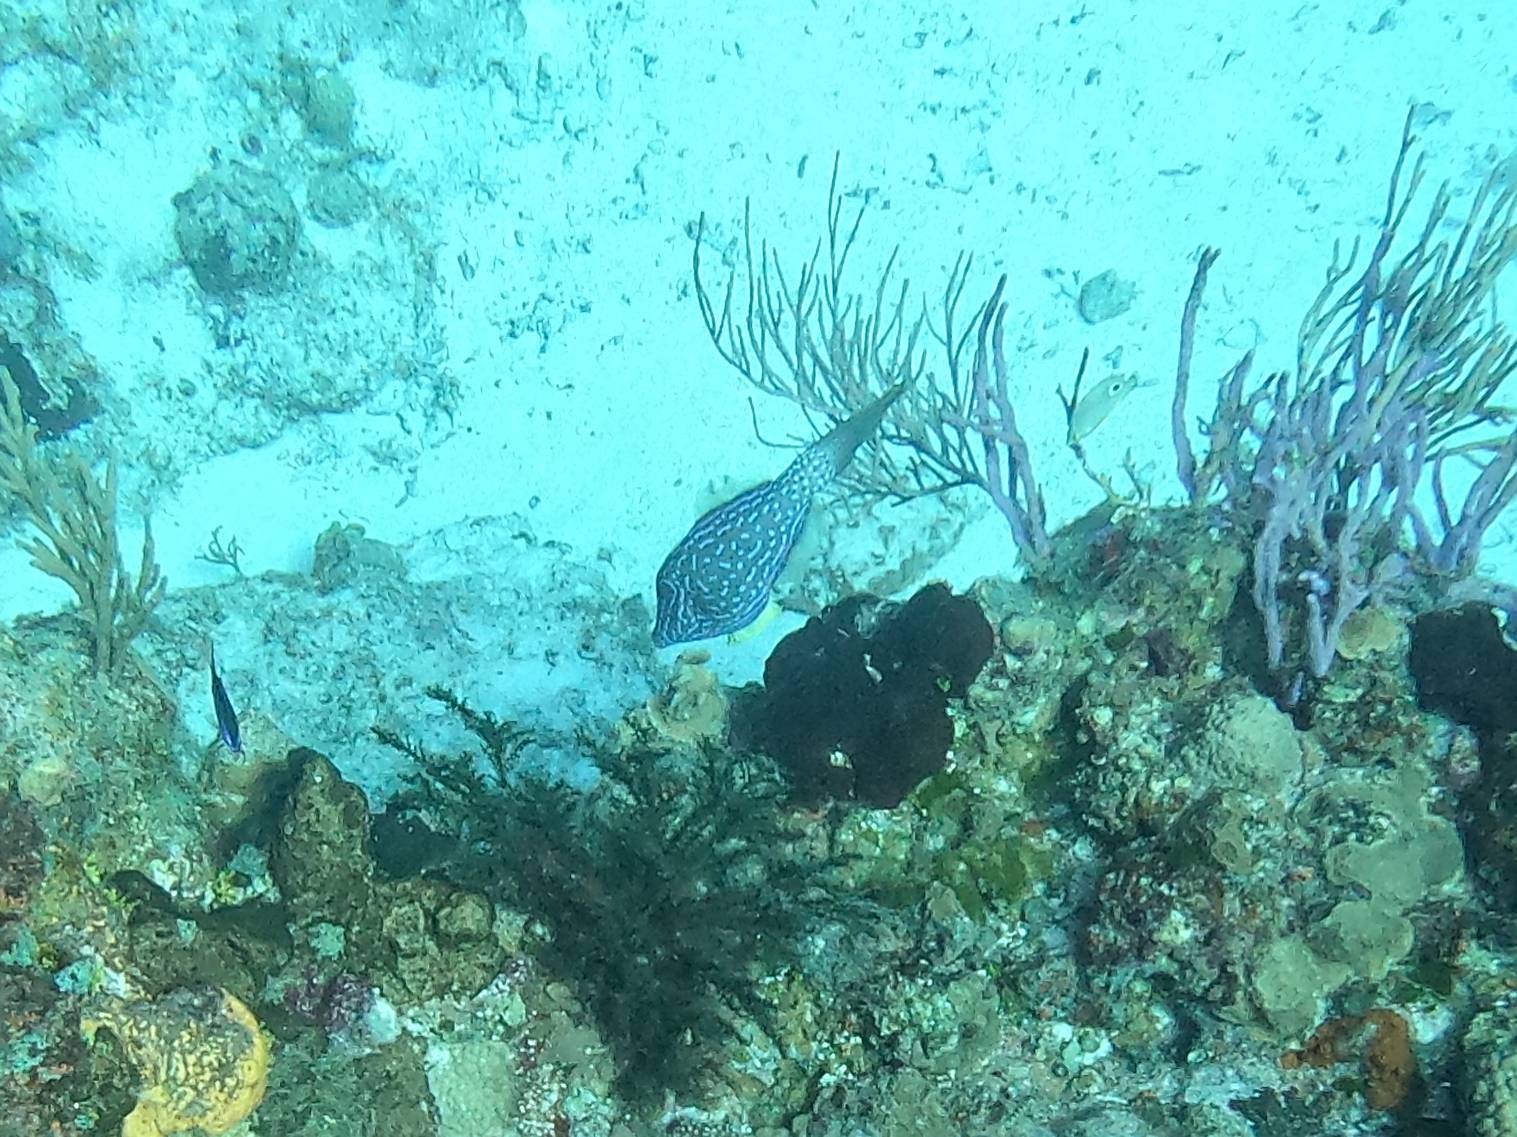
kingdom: Animalia
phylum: Chordata
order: Tetraodontiformes
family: Monacanthidae
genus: Aluterus
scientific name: Aluterus scriptus
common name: Scribbled leatherjacket filefish
